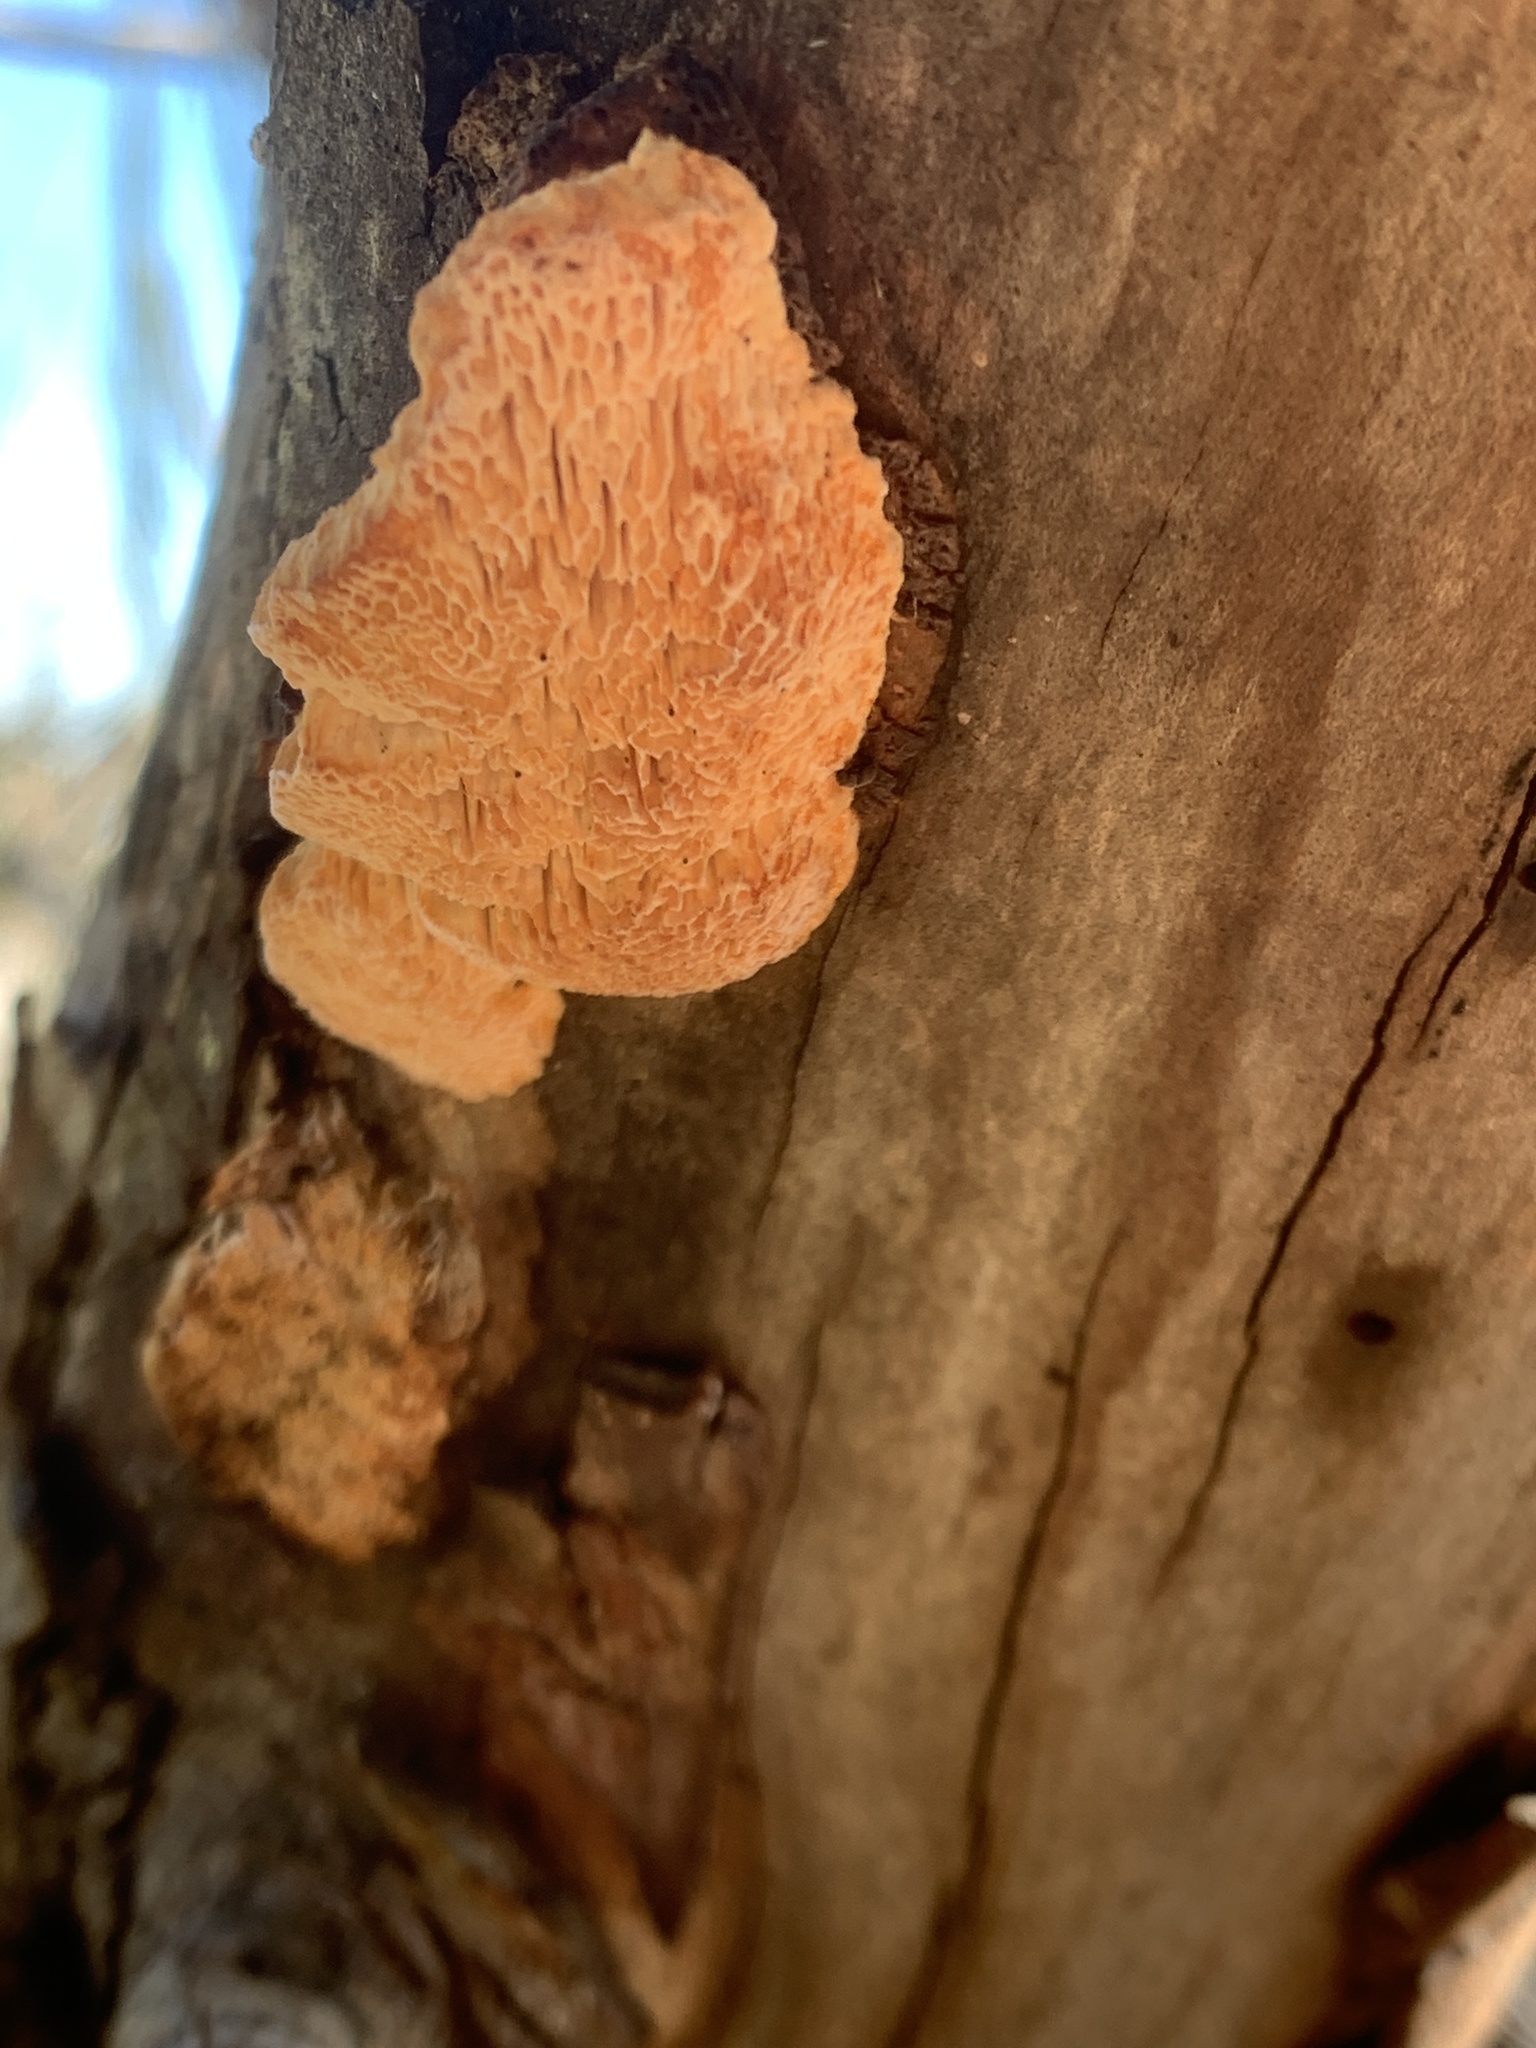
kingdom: Fungi
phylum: Basidiomycota
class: Agaricomycetes
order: Gloeophyllales
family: Gloeophyllaceae
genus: Gloeophyllum
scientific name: Gloeophyllum sepiarium
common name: Conifer mazegill
